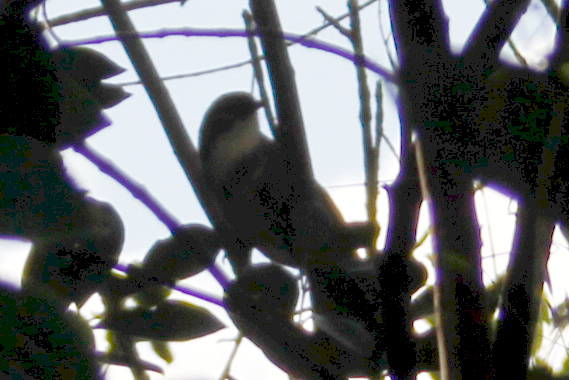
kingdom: Animalia
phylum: Chordata
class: Aves
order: Passeriformes
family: Leiothrichidae
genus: Garrulax
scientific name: Garrulax pectoralis
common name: Greater necklaced laughingthrush
